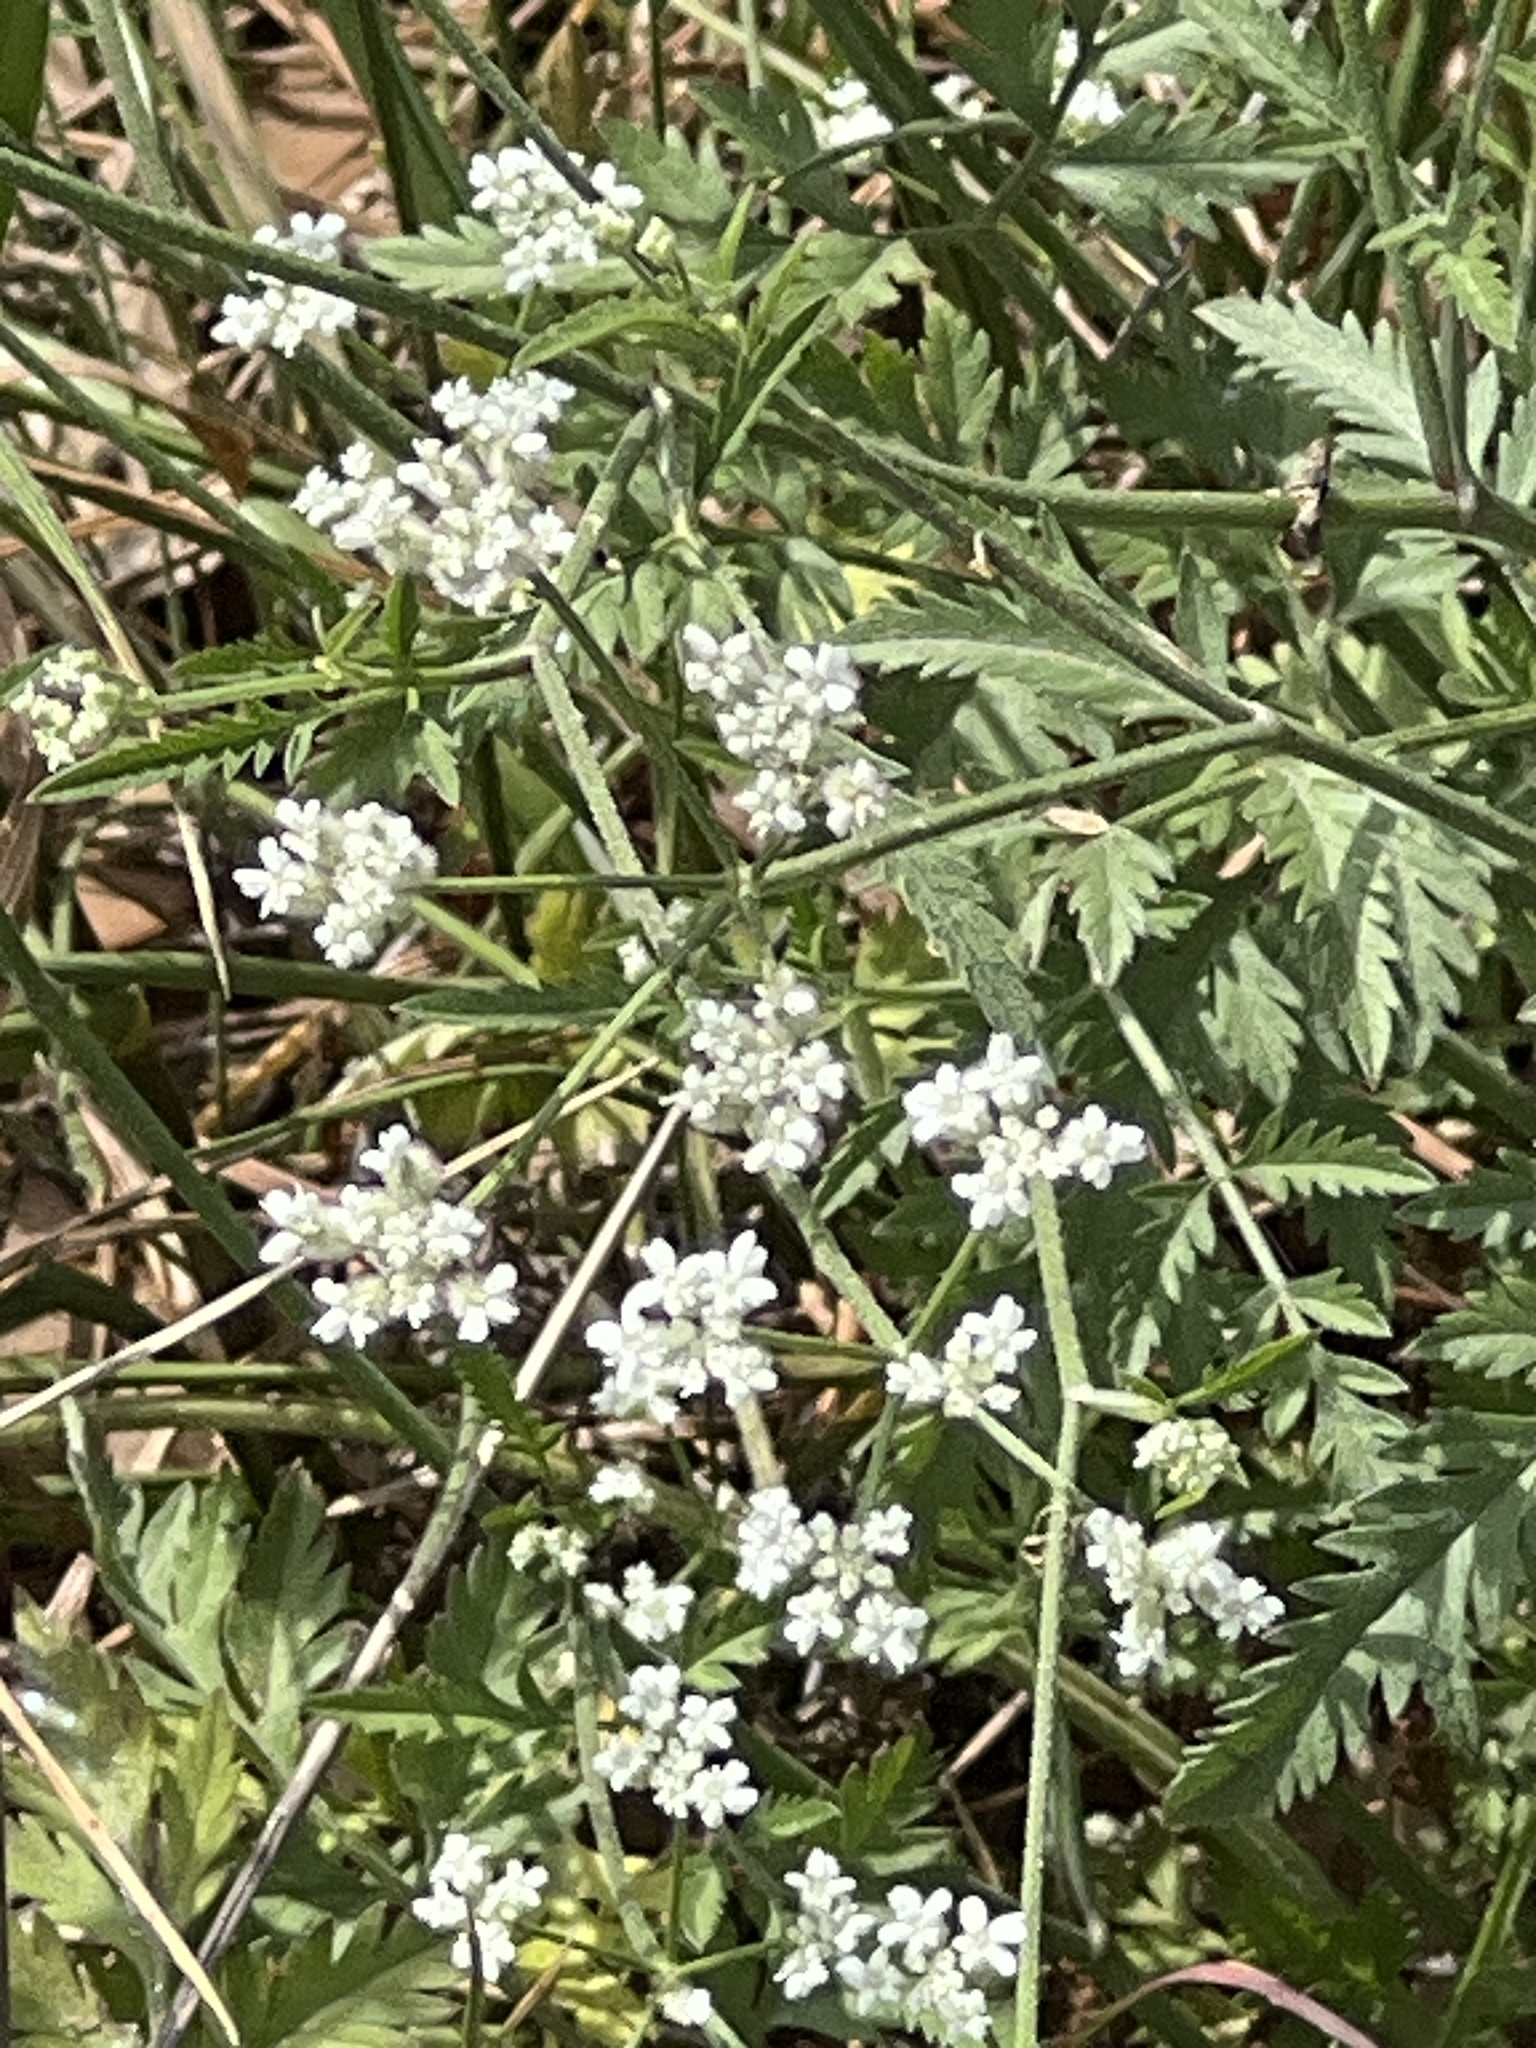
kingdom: Plantae
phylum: Tracheophyta
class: Magnoliopsida
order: Apiales
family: Apiaceae
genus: Torilis
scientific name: Torilis arvensis
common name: Spreading hedge-parsley
